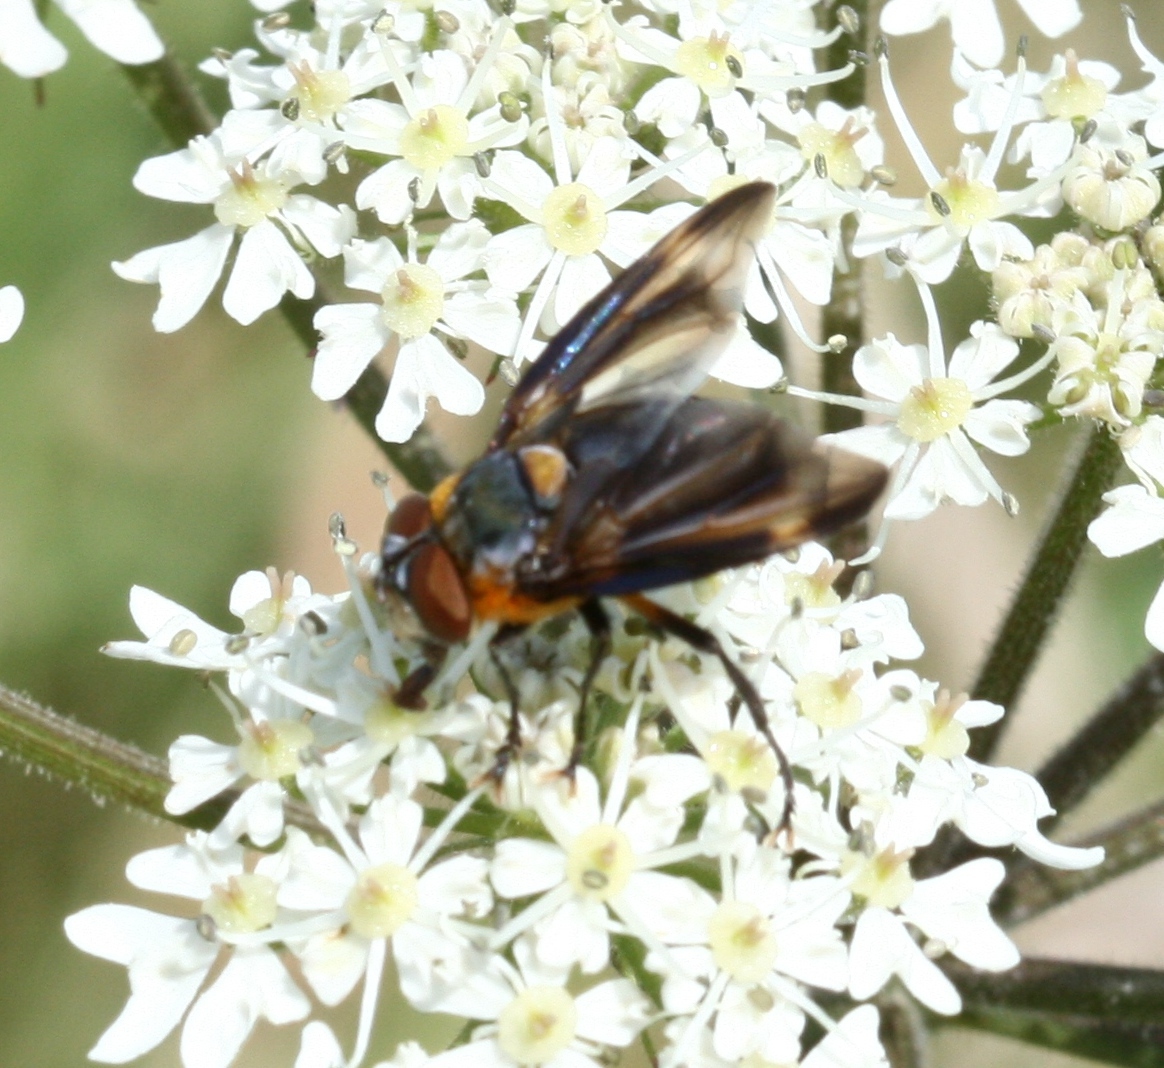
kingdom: Animalia
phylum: Arthropoda
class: Insecta
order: Diptera
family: Tachinidae
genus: Phasia
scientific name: Phasia hemiptera
